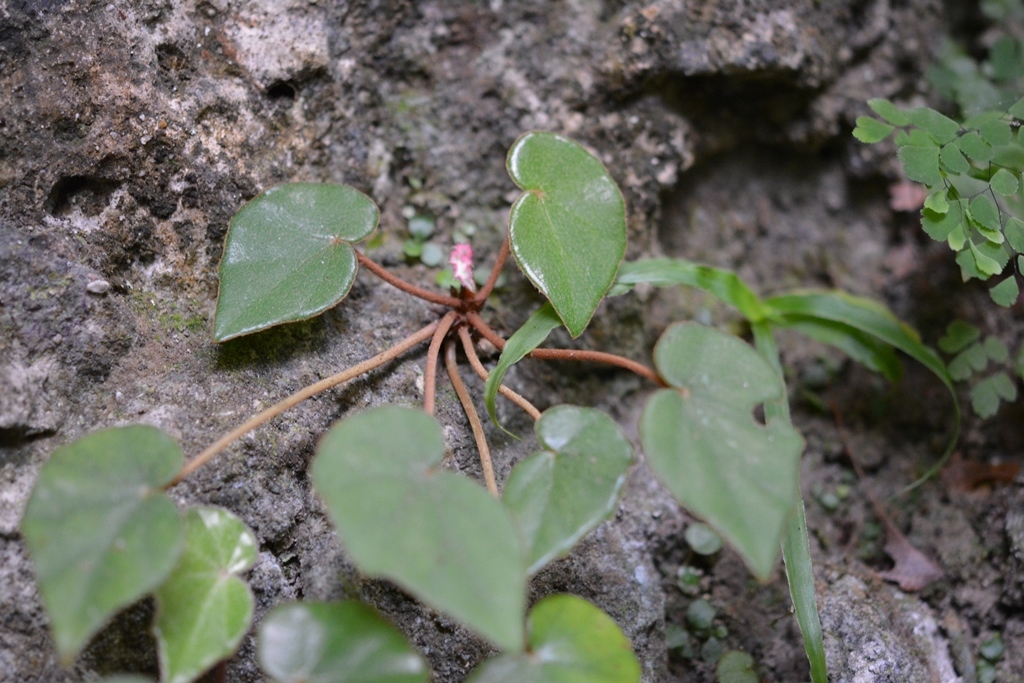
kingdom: Plantae
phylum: Tracheophyta
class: Magnoliopsida
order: Cucurbitales
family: Begoniaceae
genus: Begonia
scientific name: Begonia pinetorum
